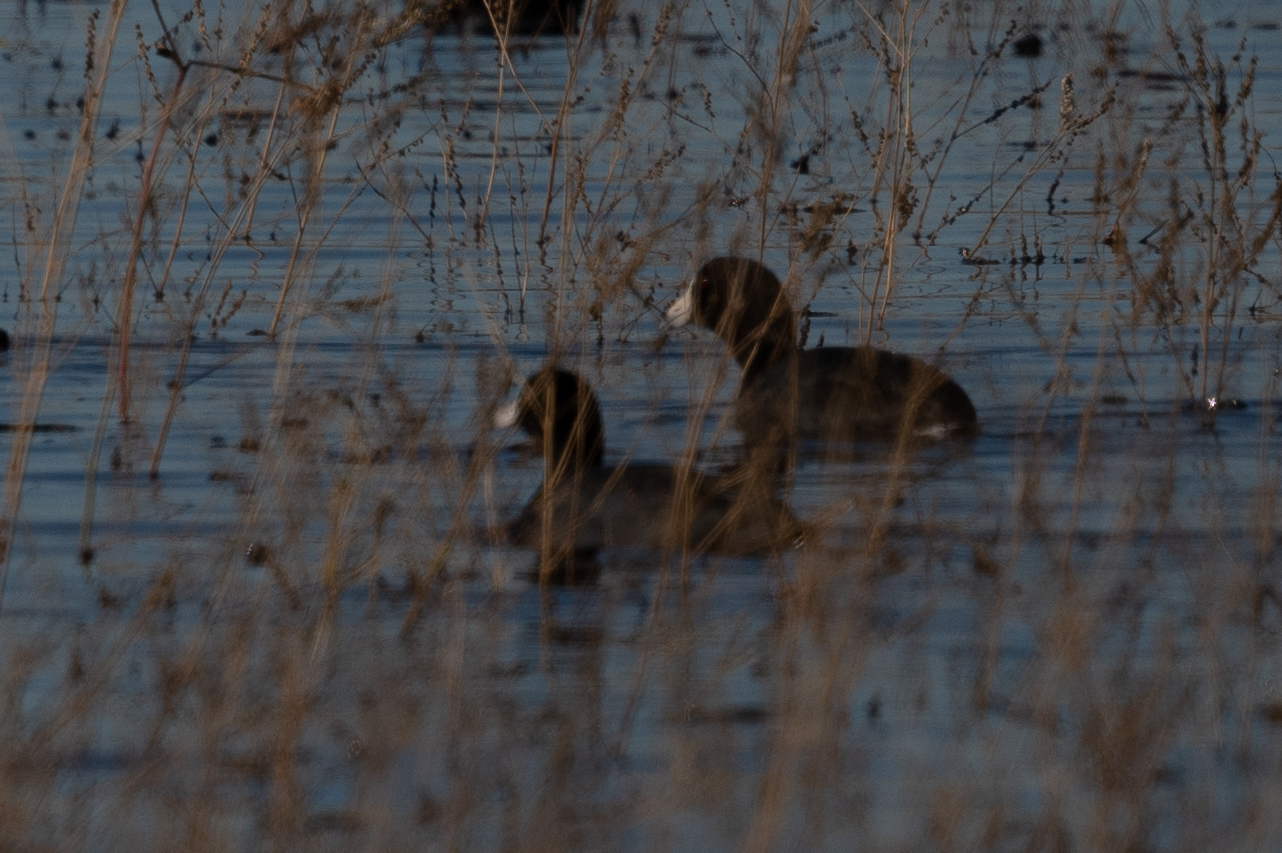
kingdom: Animalia
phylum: Chordata
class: Aves
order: Gruiformes
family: Rallidae
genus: Fulica
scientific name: Fulica americana
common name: American coot
